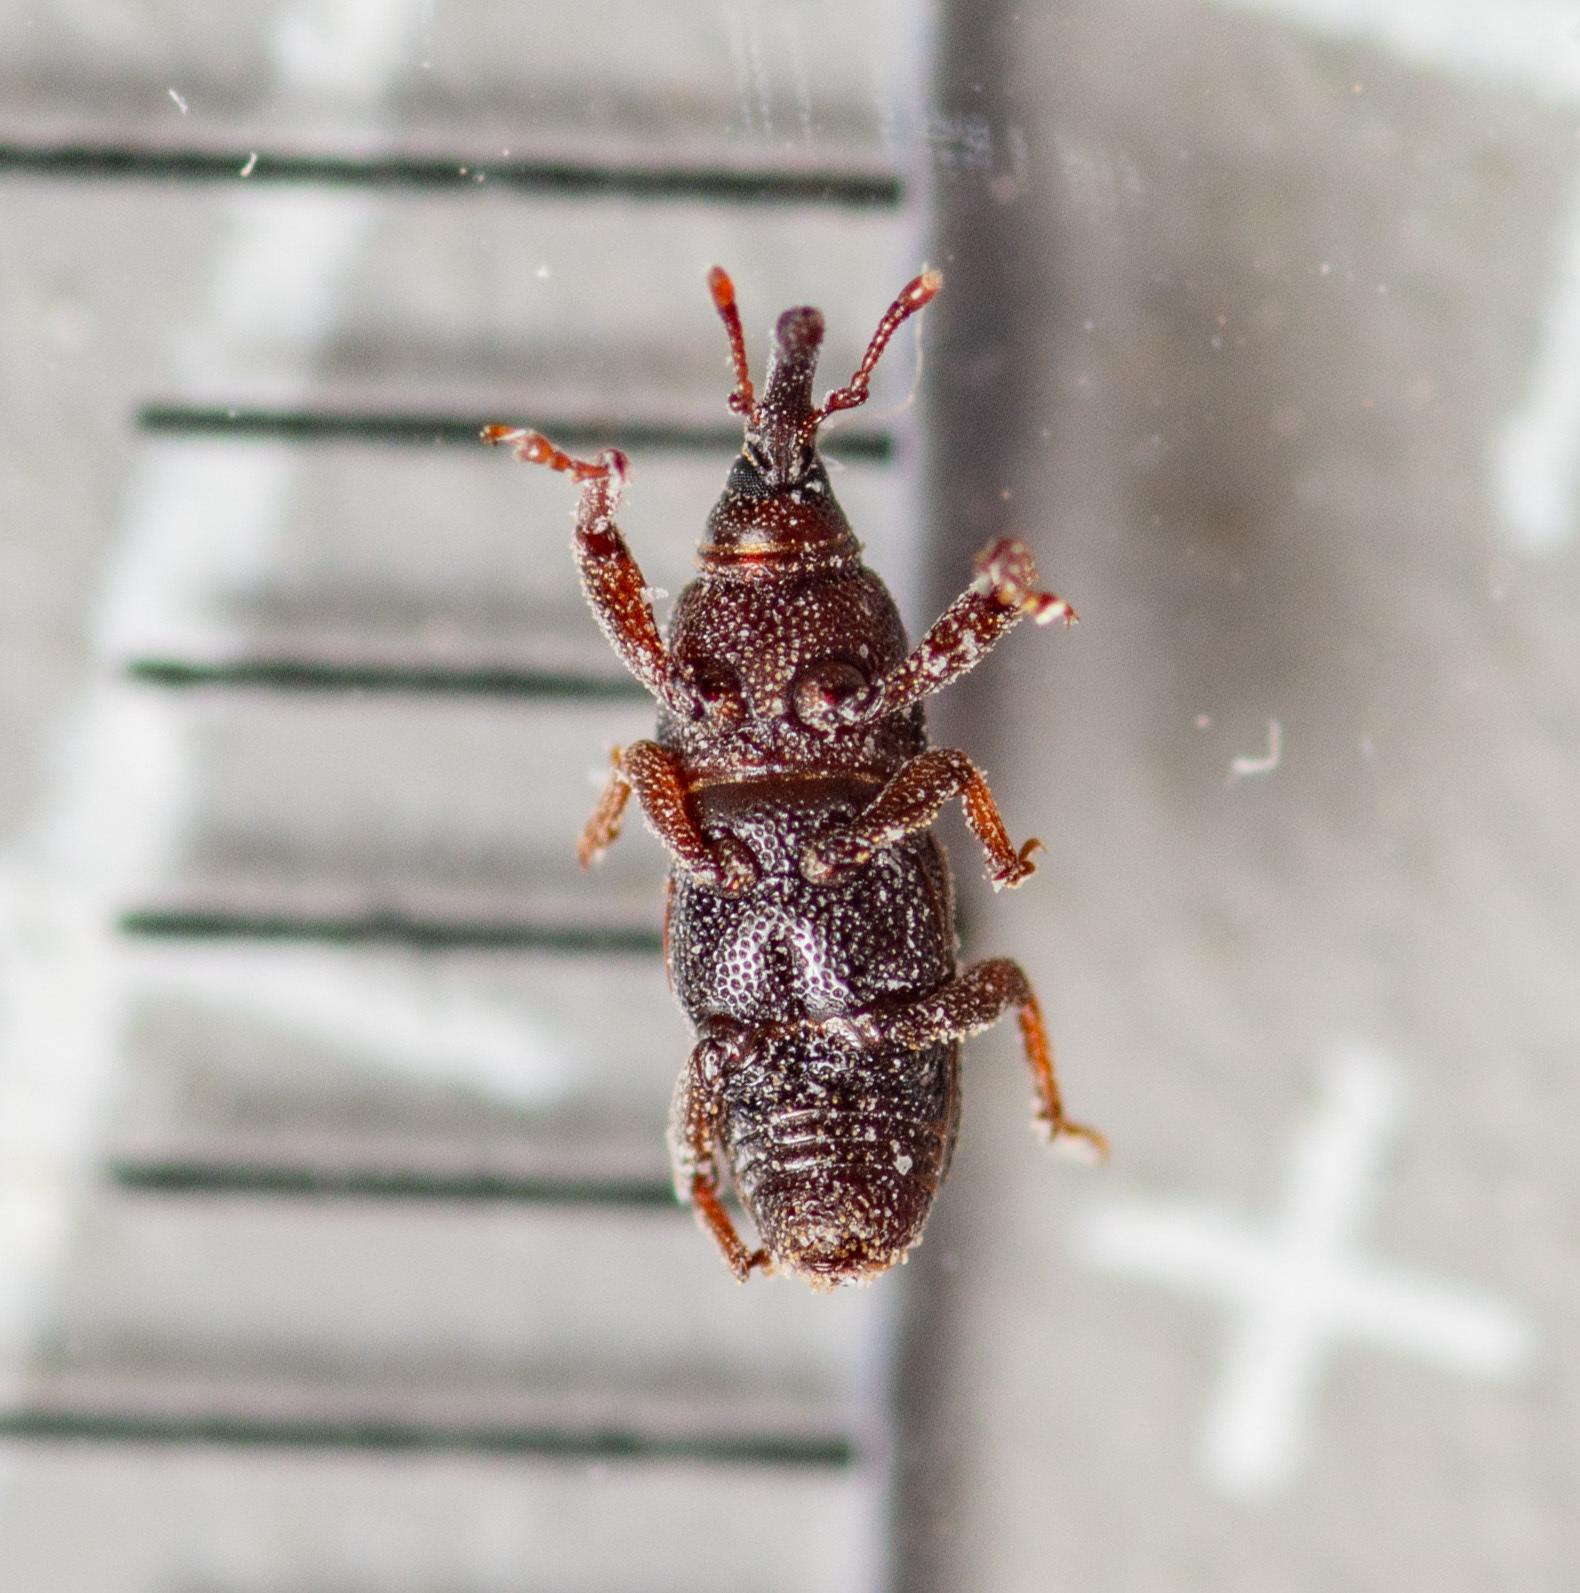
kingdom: Animalia
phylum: Arthropoda
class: Insecta
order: Coleoptera
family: Dryophthoridae
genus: Sitophilus
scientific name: Sitophilus
